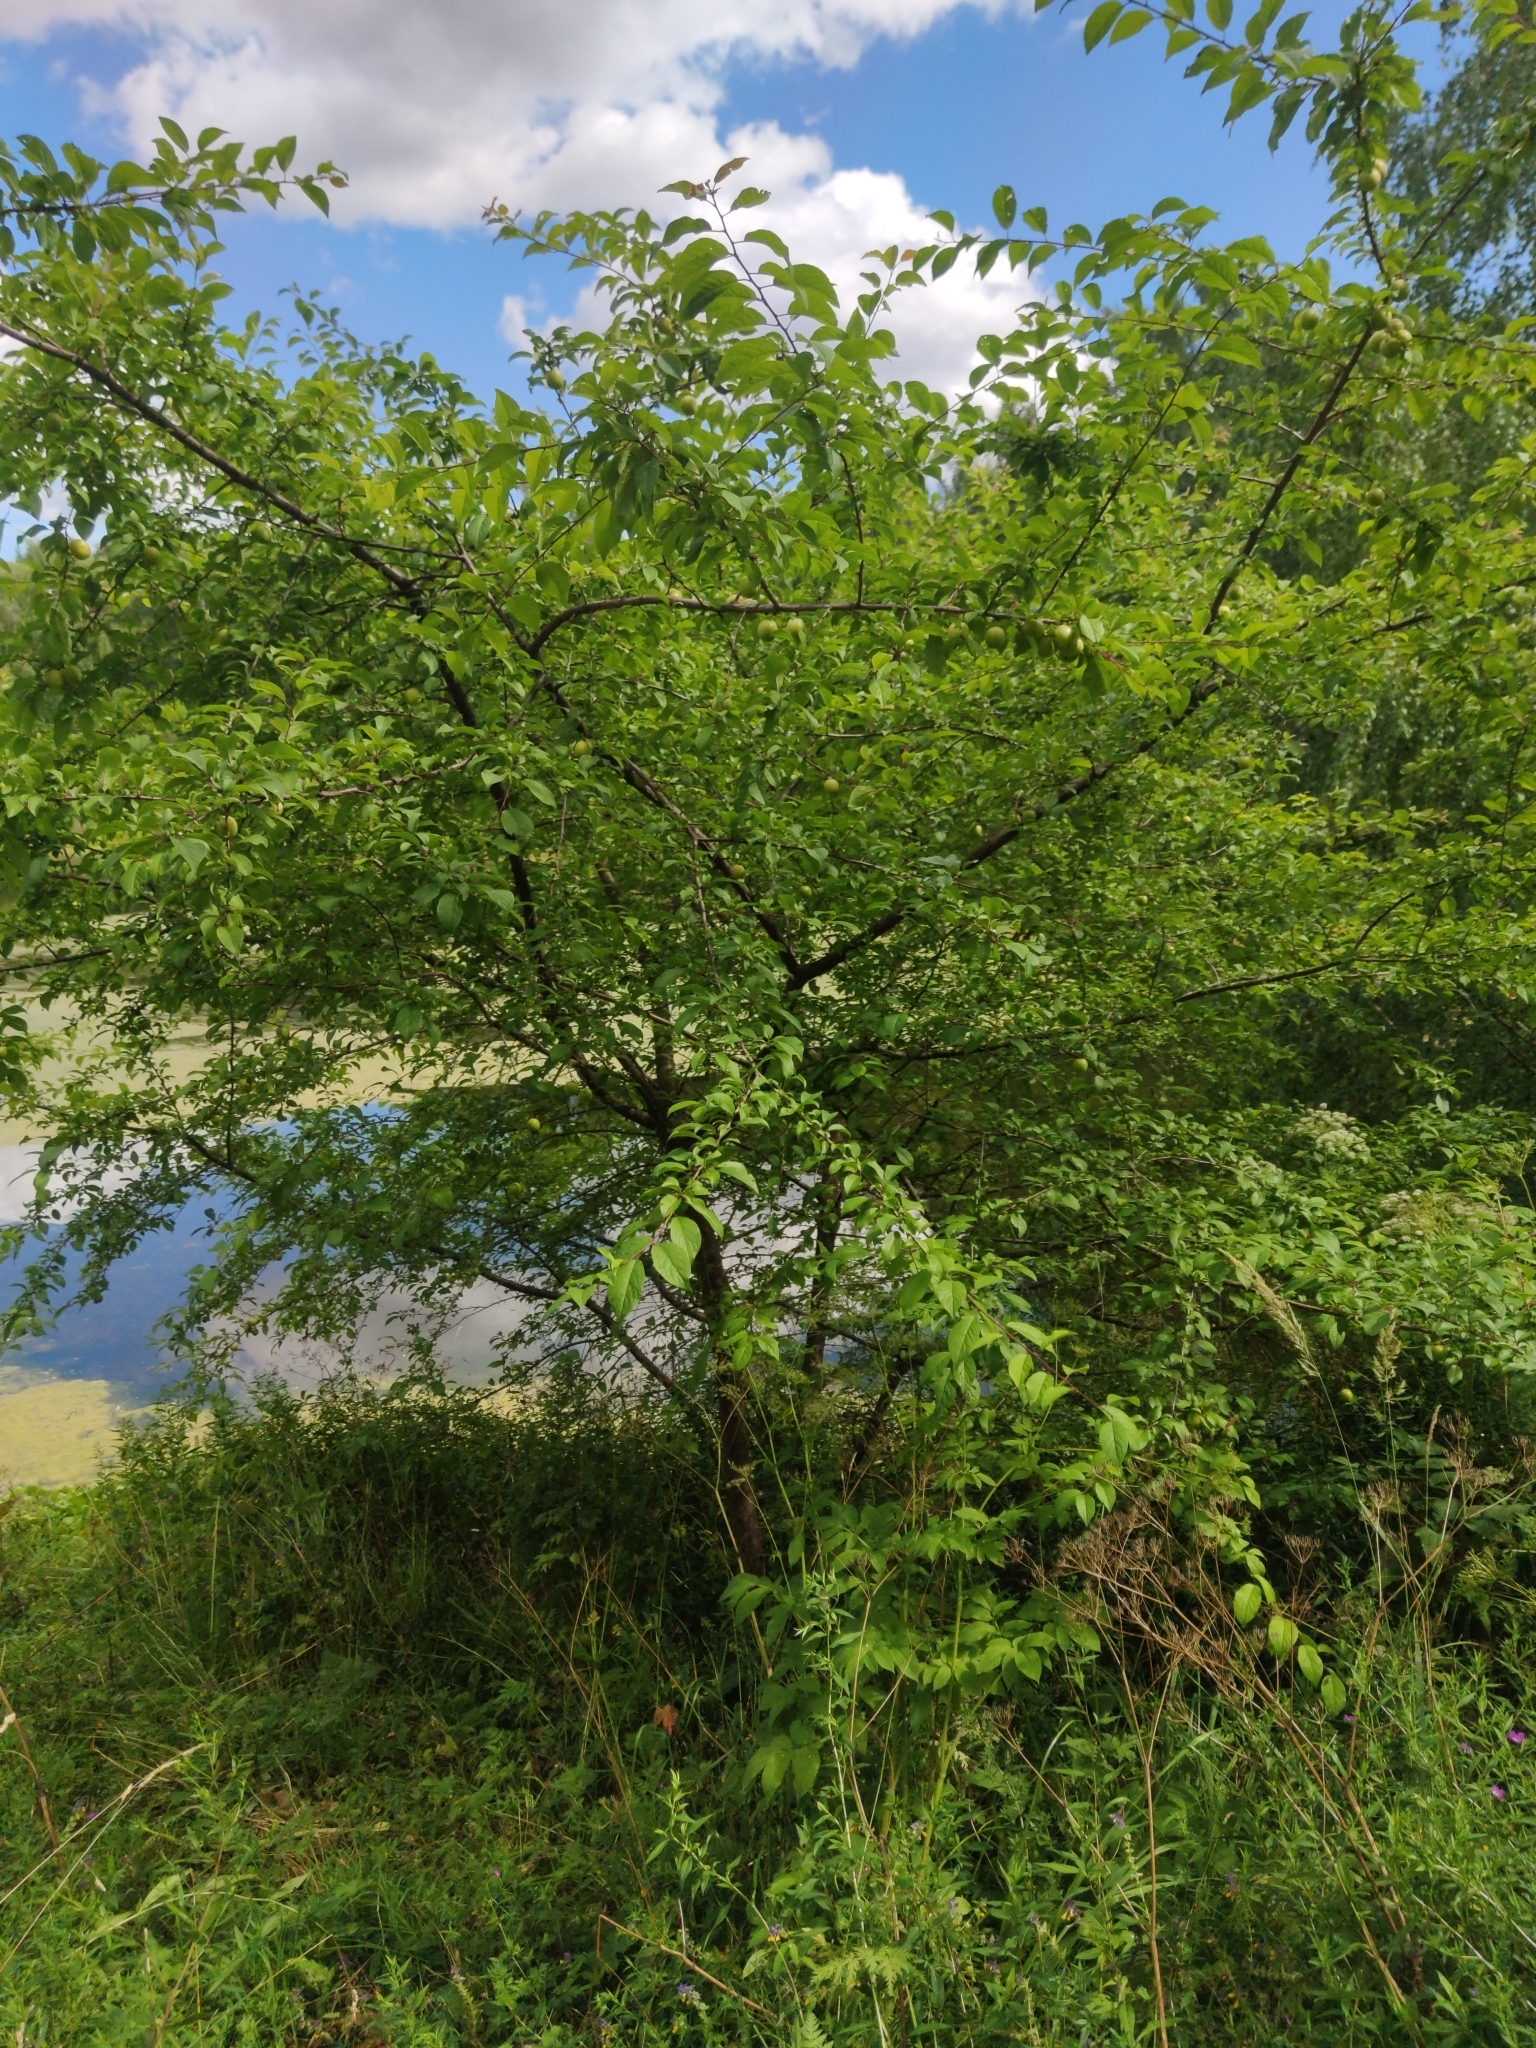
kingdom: Plantae
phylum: Tracheophyta
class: Magnoliopsida
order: Rosales
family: Rosaceae
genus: Prunus
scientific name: Prunus cerasifera
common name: Cherry plum
